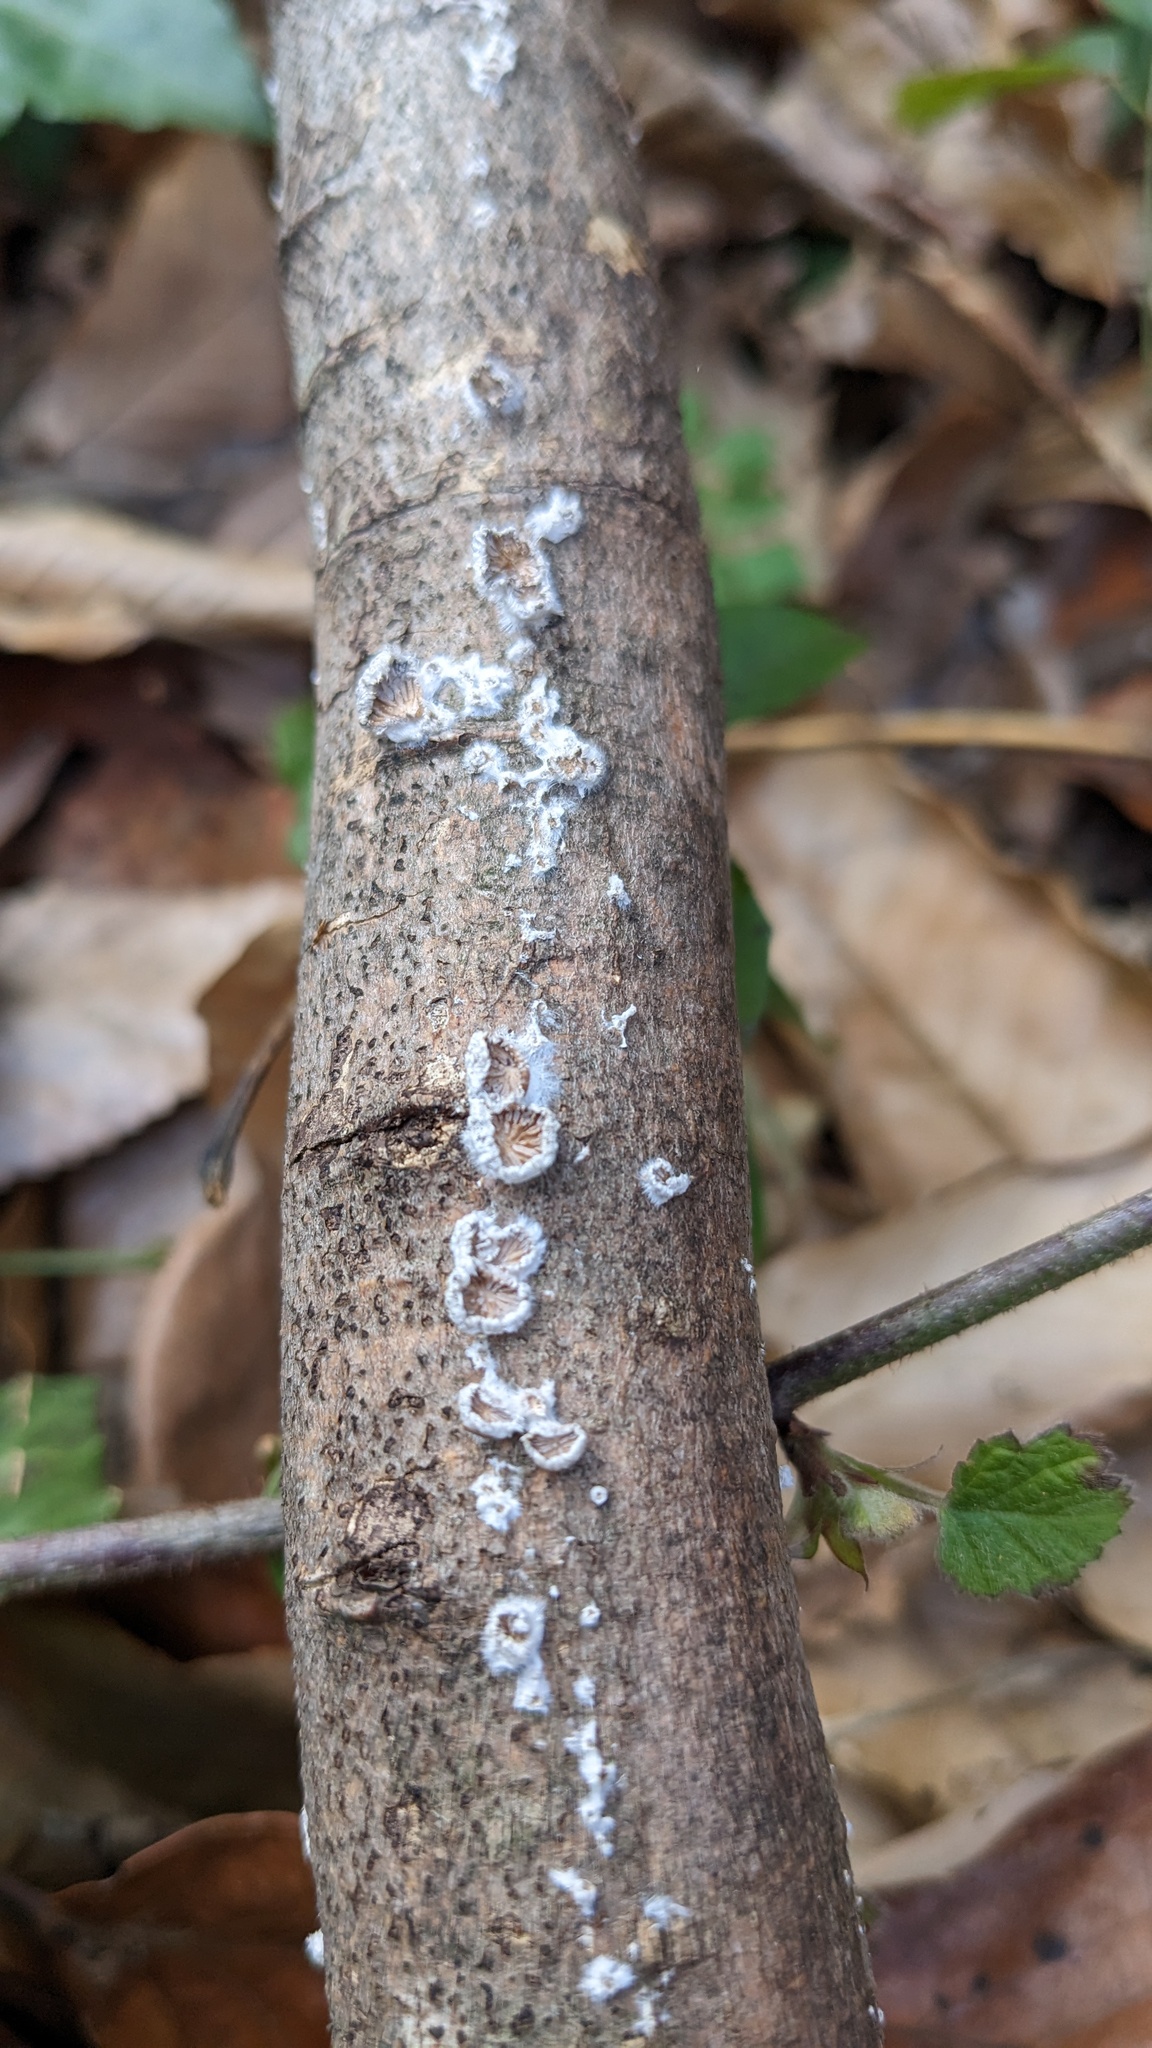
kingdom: Fungi
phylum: Basidiomycota
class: Agaricomycetes
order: Agaricales
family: Schizophyllaceae
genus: Schizophyllum
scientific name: Schizophyllum commune
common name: Common porecrust
